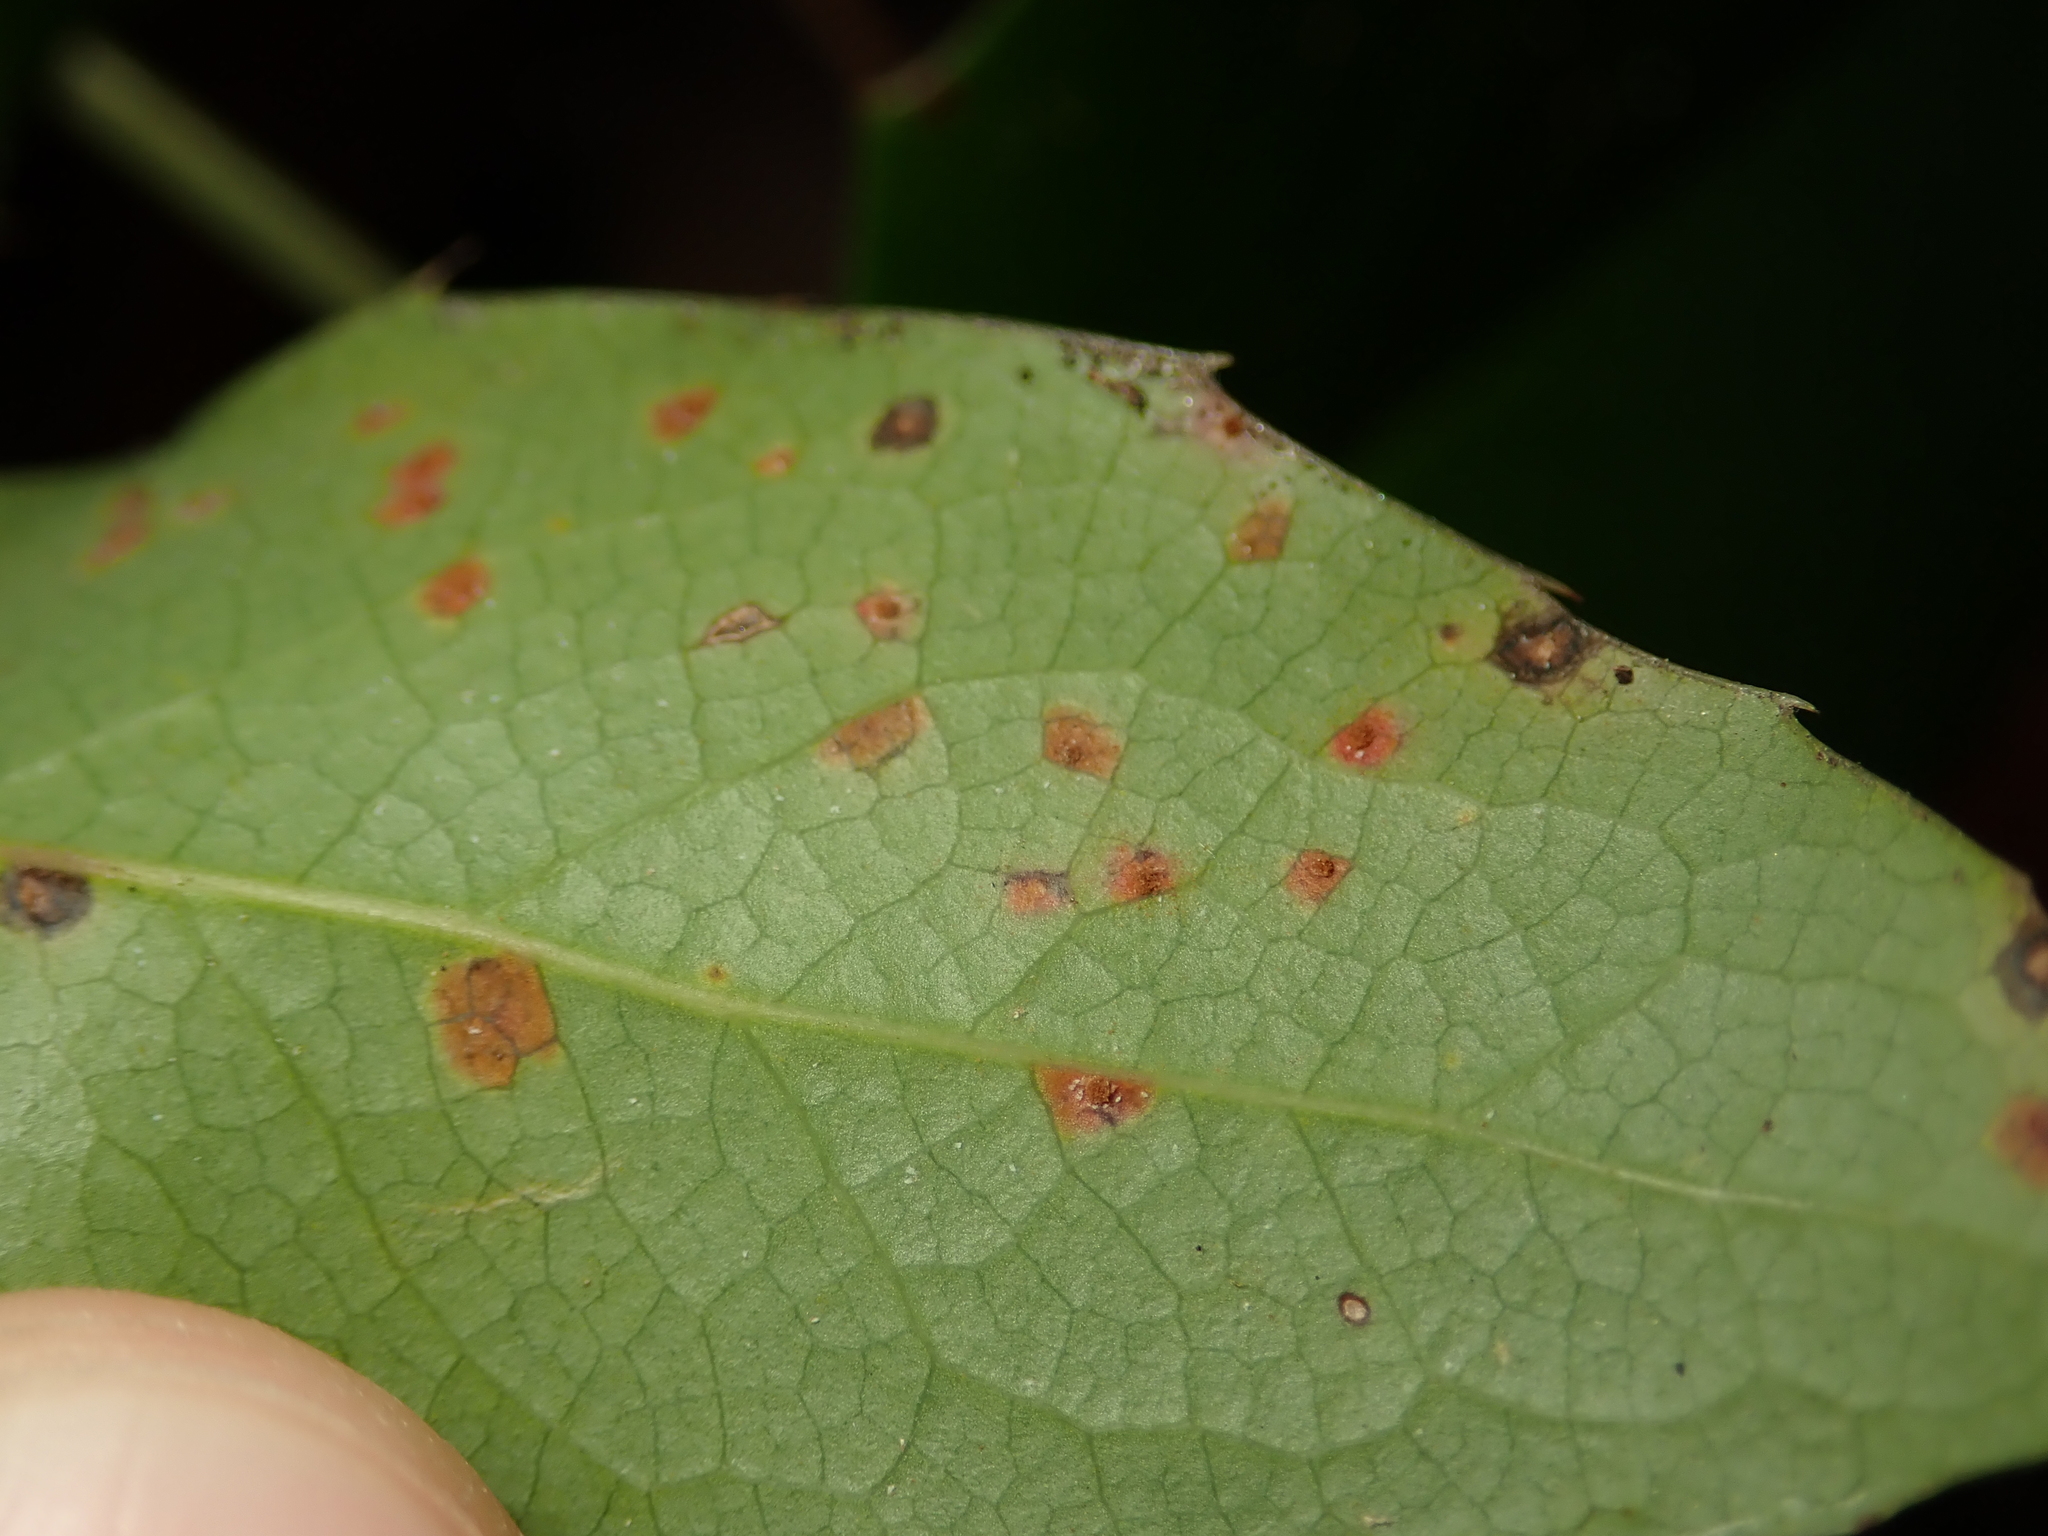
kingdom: Fungi
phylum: Basidiomycota
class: Pucciniomycetes
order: Pucciniales
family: Pucciniaceae
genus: Cumminsiella
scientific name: Cumminsiella mirabilissima
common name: Mahonia rust
